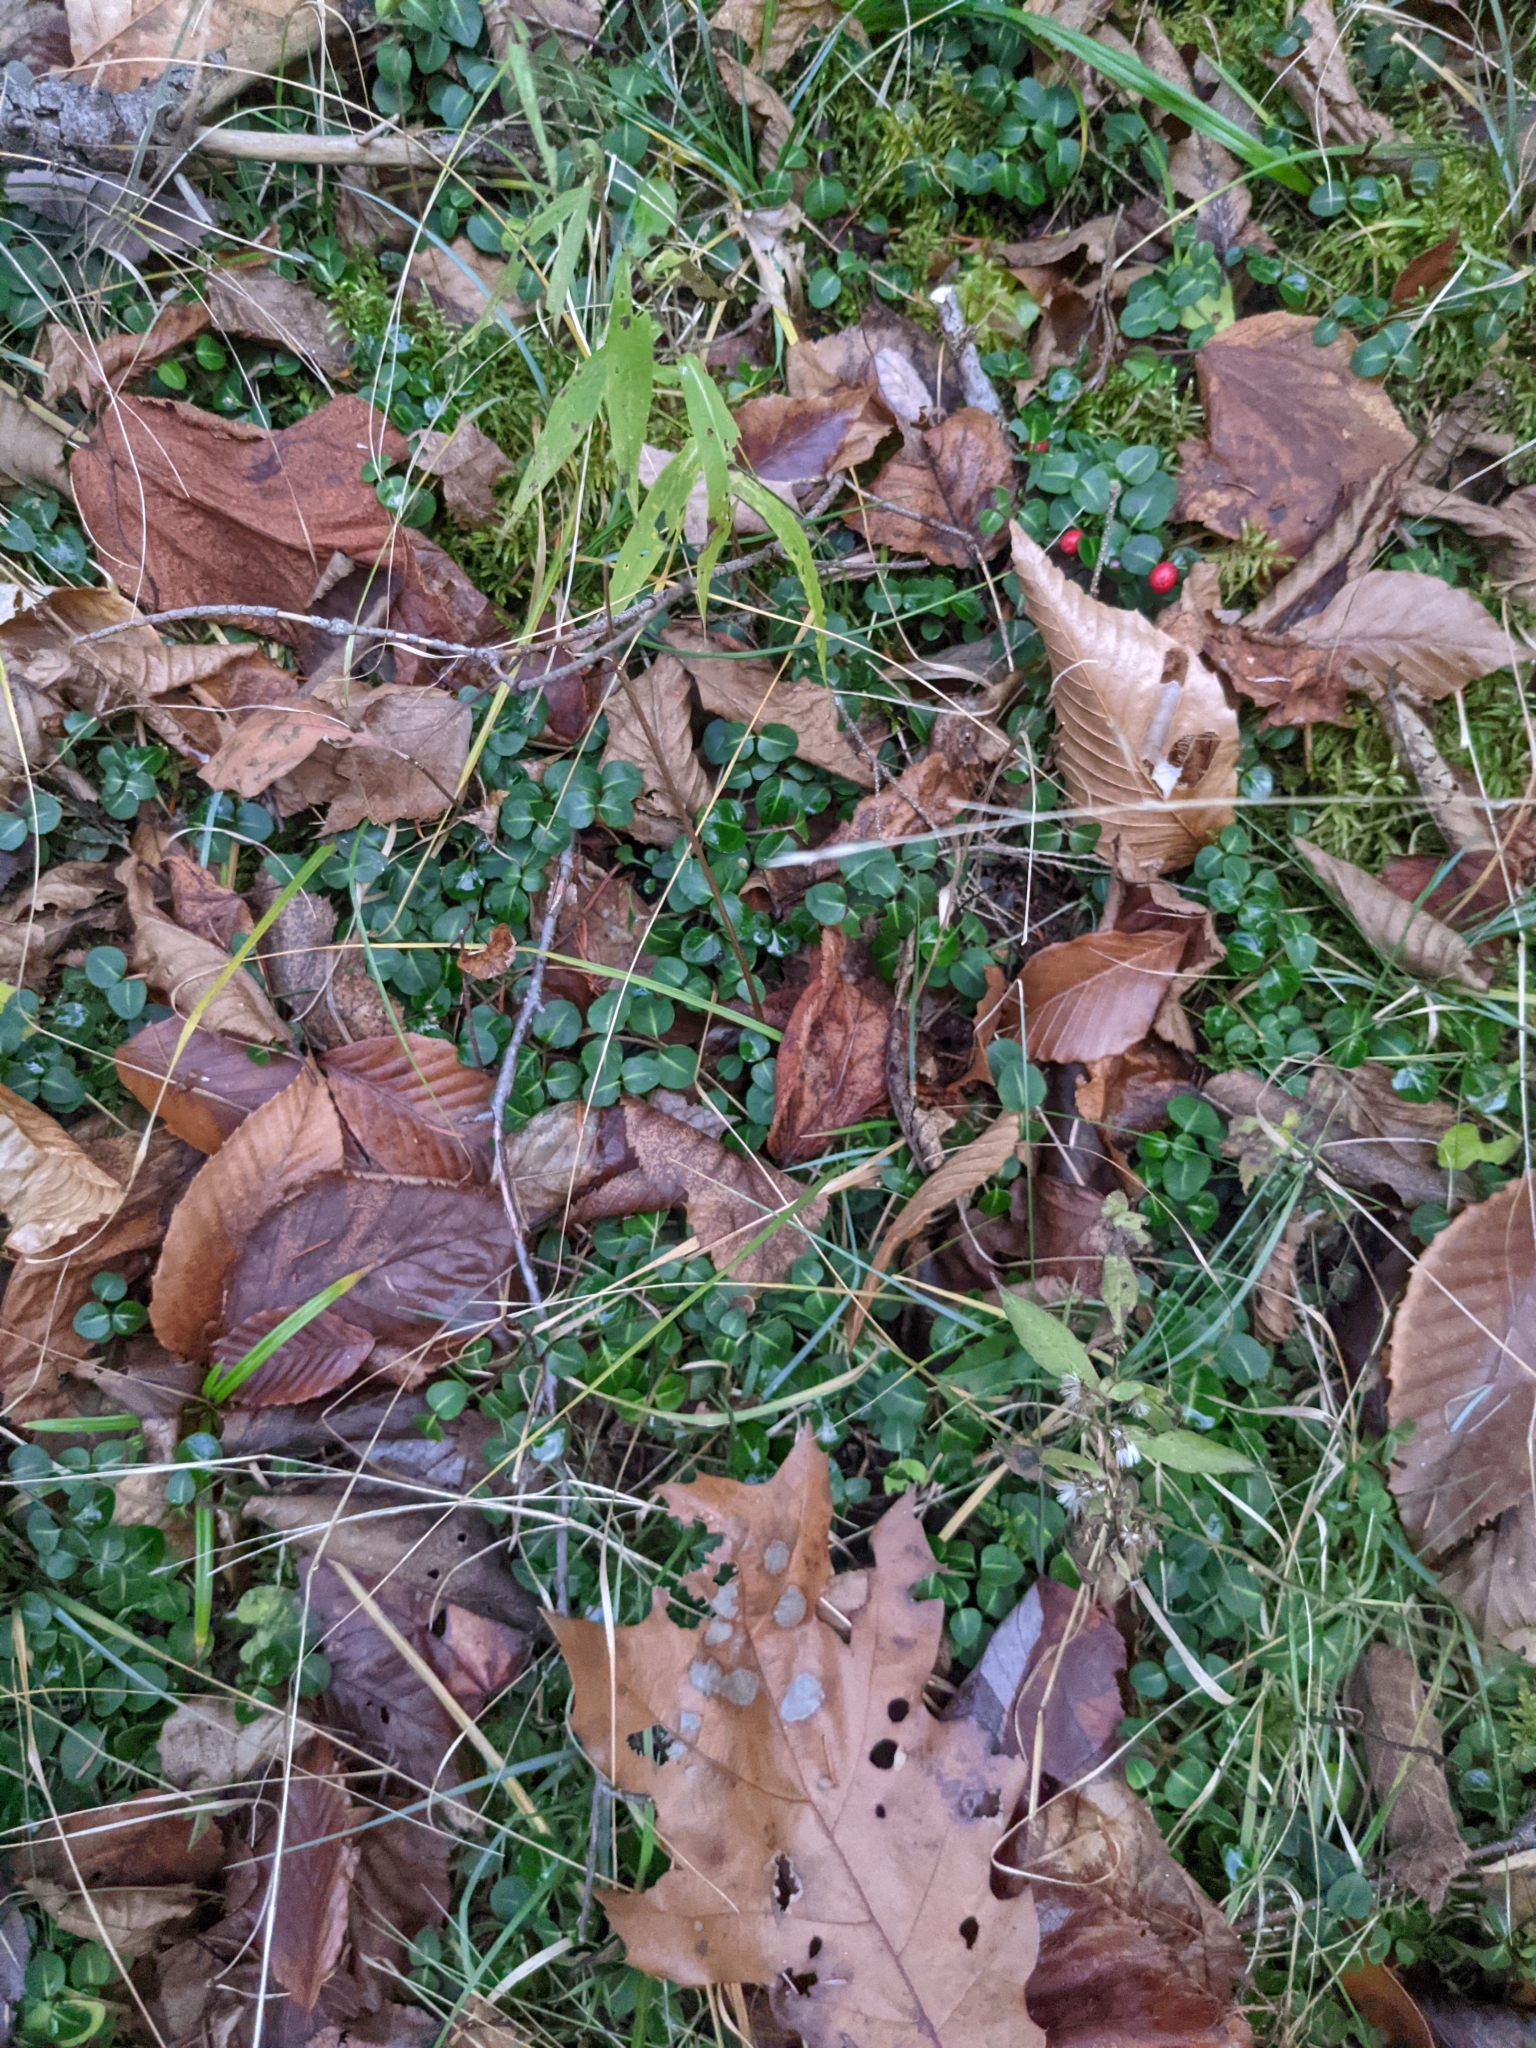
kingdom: Plantae
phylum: Tracheophyta
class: Magnoliopsida
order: Gentianales
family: Rubiaceae
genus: Mitchella
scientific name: Mitchella repens
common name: Partridge-berry
